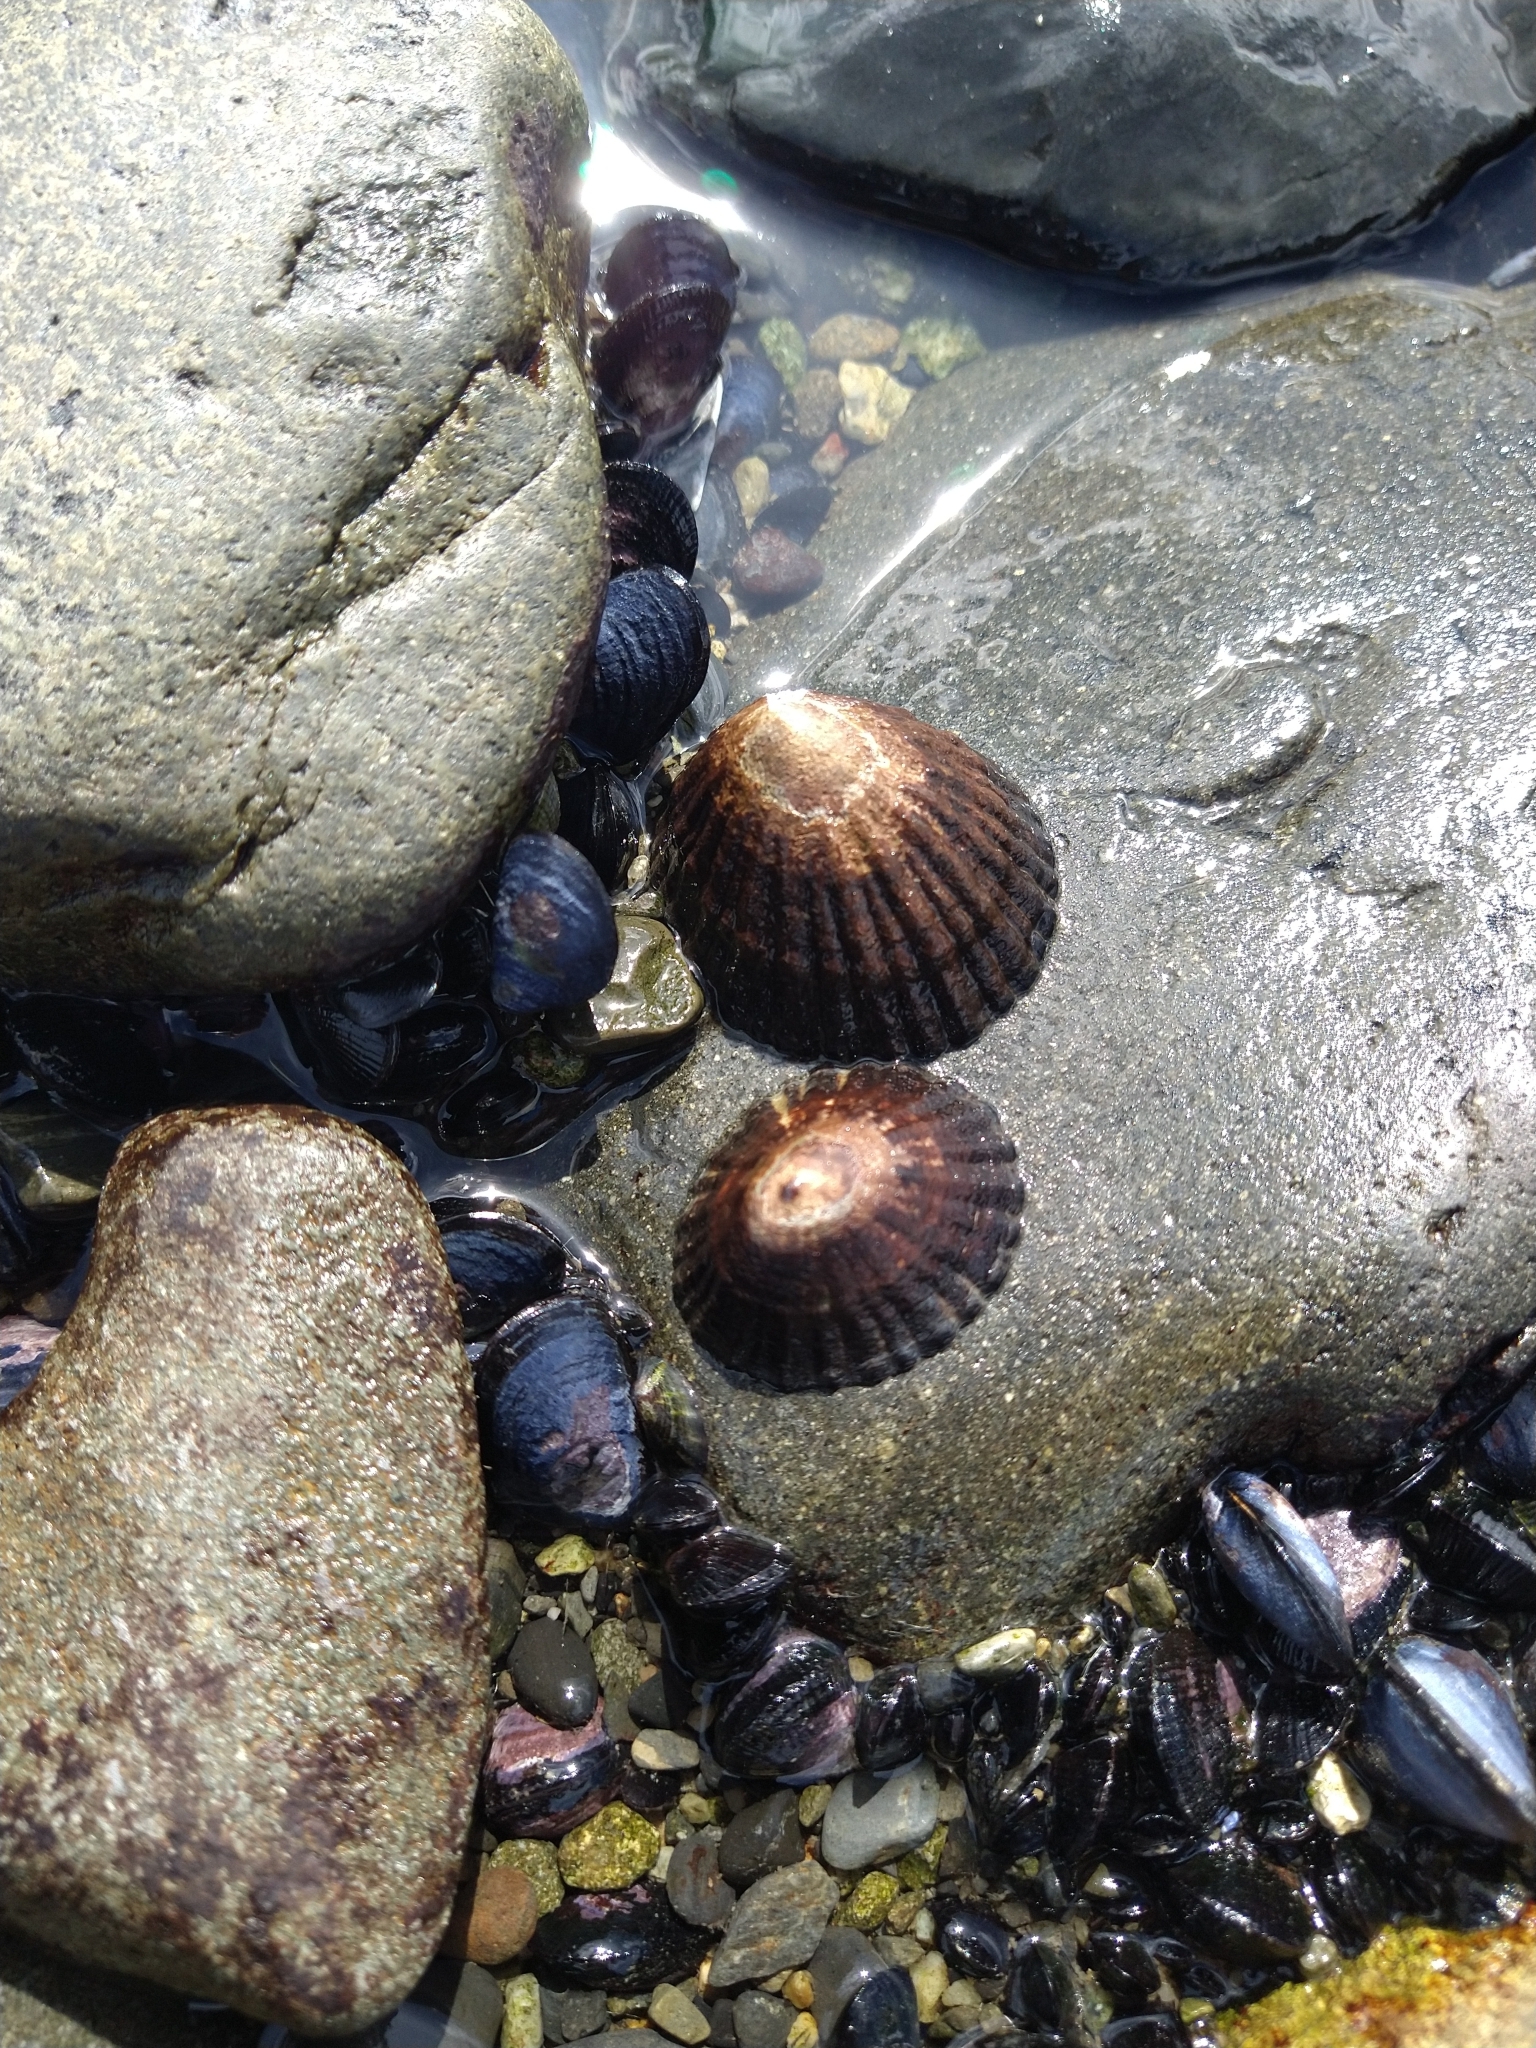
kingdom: Animalia
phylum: Mollusca
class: Gastropoda
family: Nacellidae
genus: Nacella
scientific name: Nacella magellanica
